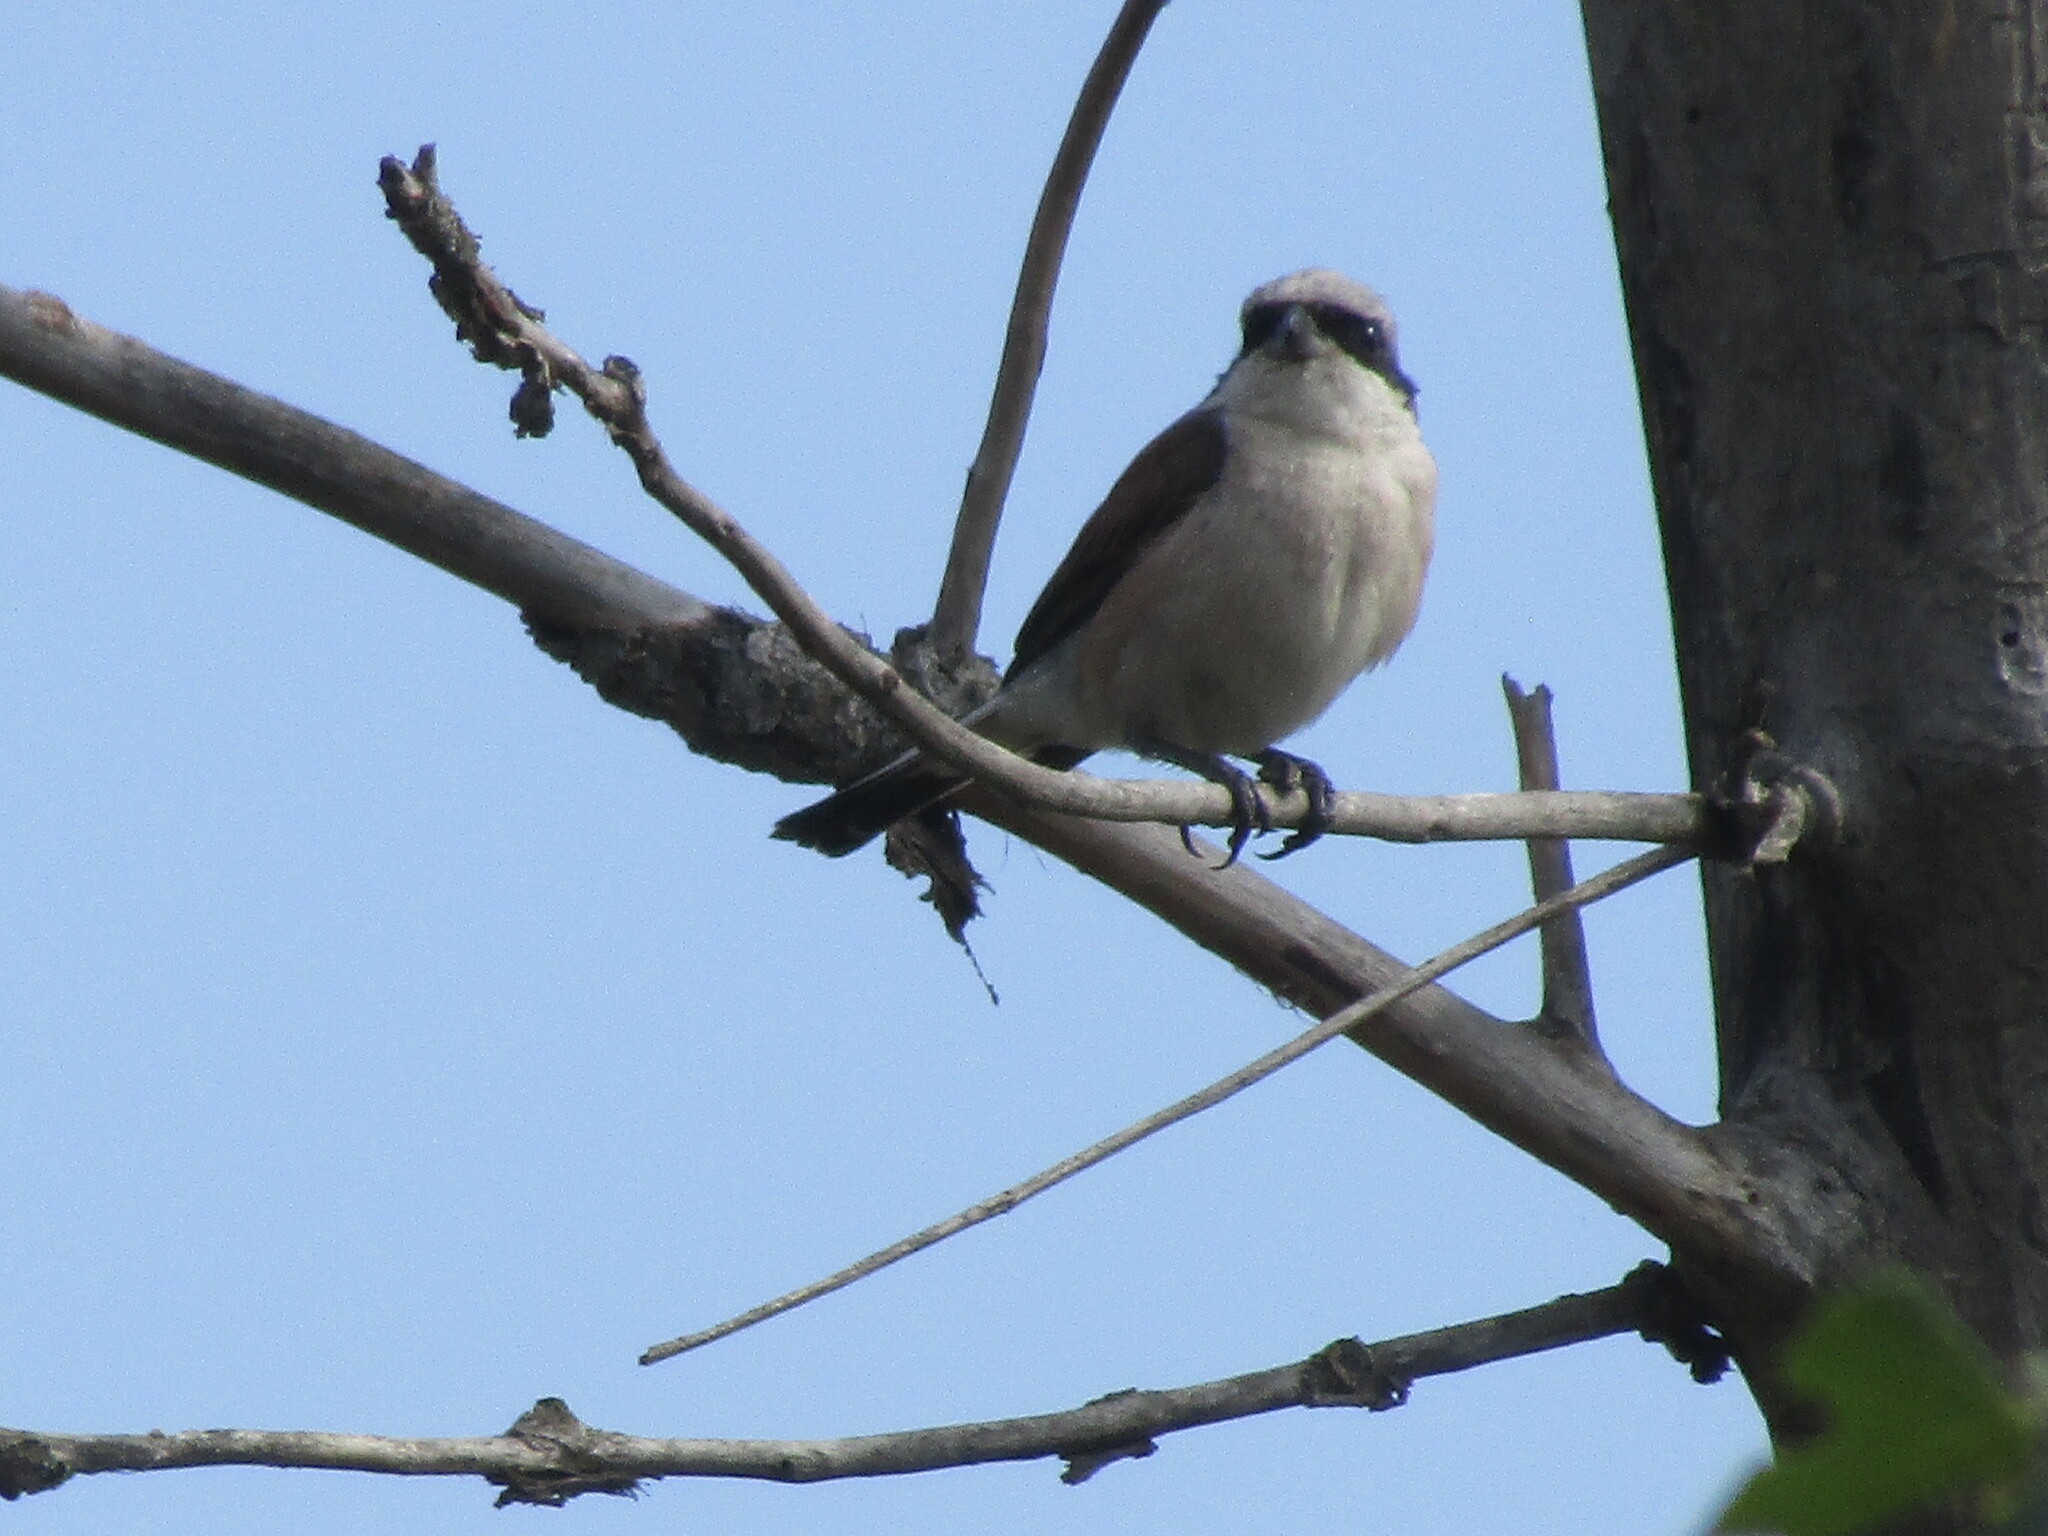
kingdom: Animalia
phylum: Chordata
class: Aves
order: Passeriformes
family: Laniidae
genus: Lanius
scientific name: Lanius collurio
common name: Red-backed shrike
